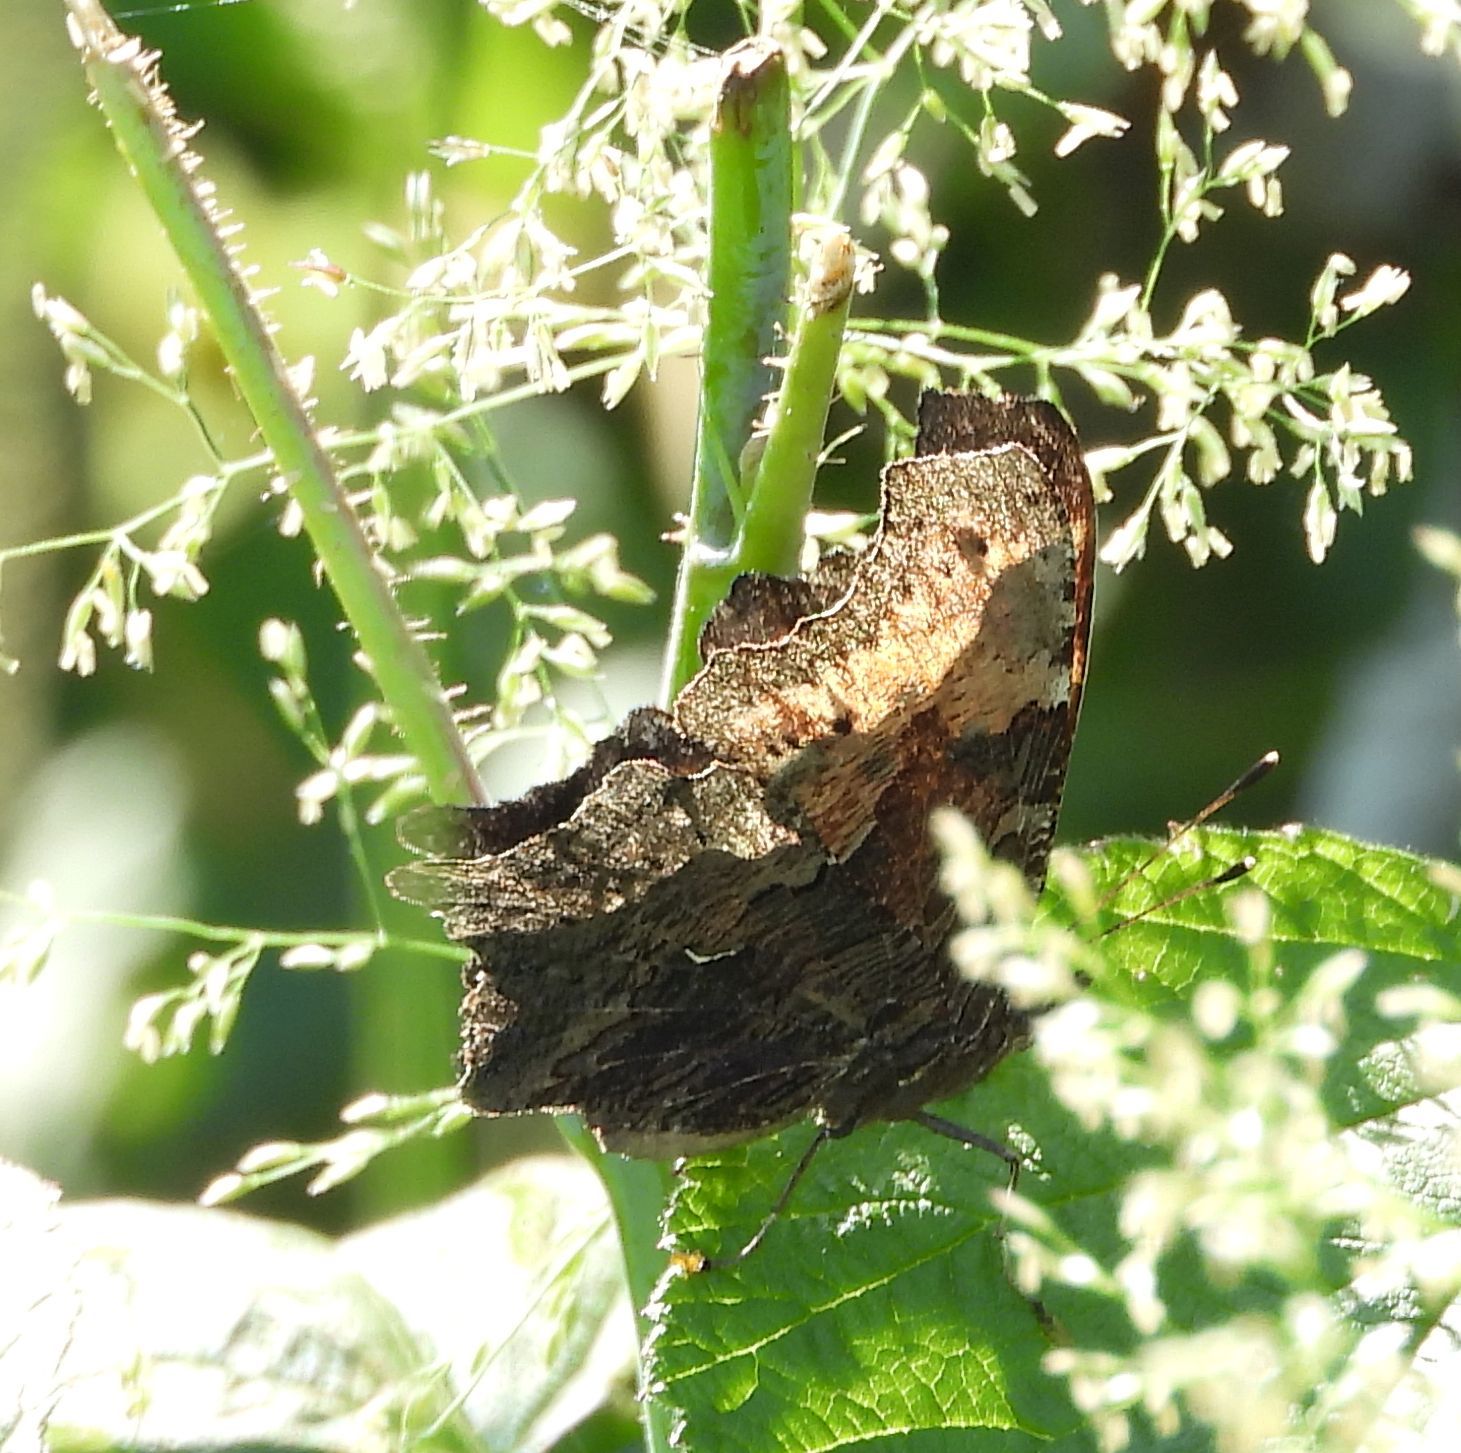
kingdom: Animalia
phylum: Arthropoda
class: Insecta
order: Lepidoptera
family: Nymphalidae
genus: Polygonia
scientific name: Polygonia progne
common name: Gray comma
